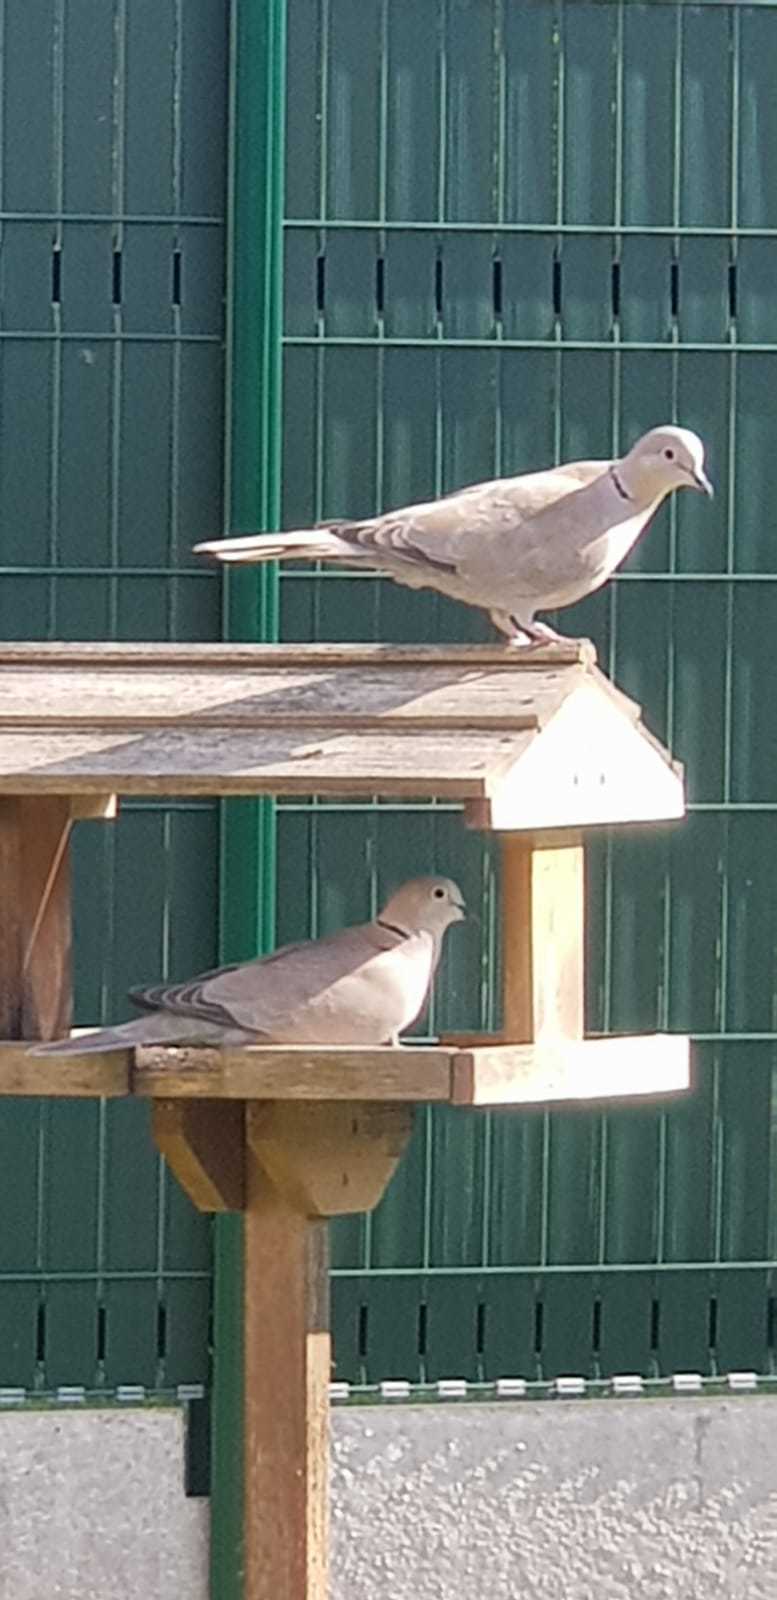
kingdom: Animalia
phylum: Chordata
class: Aves
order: Columbiformes
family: Columbidae
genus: Streptopelia
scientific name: Streptopelia decaocto
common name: Eurasian collared dove
